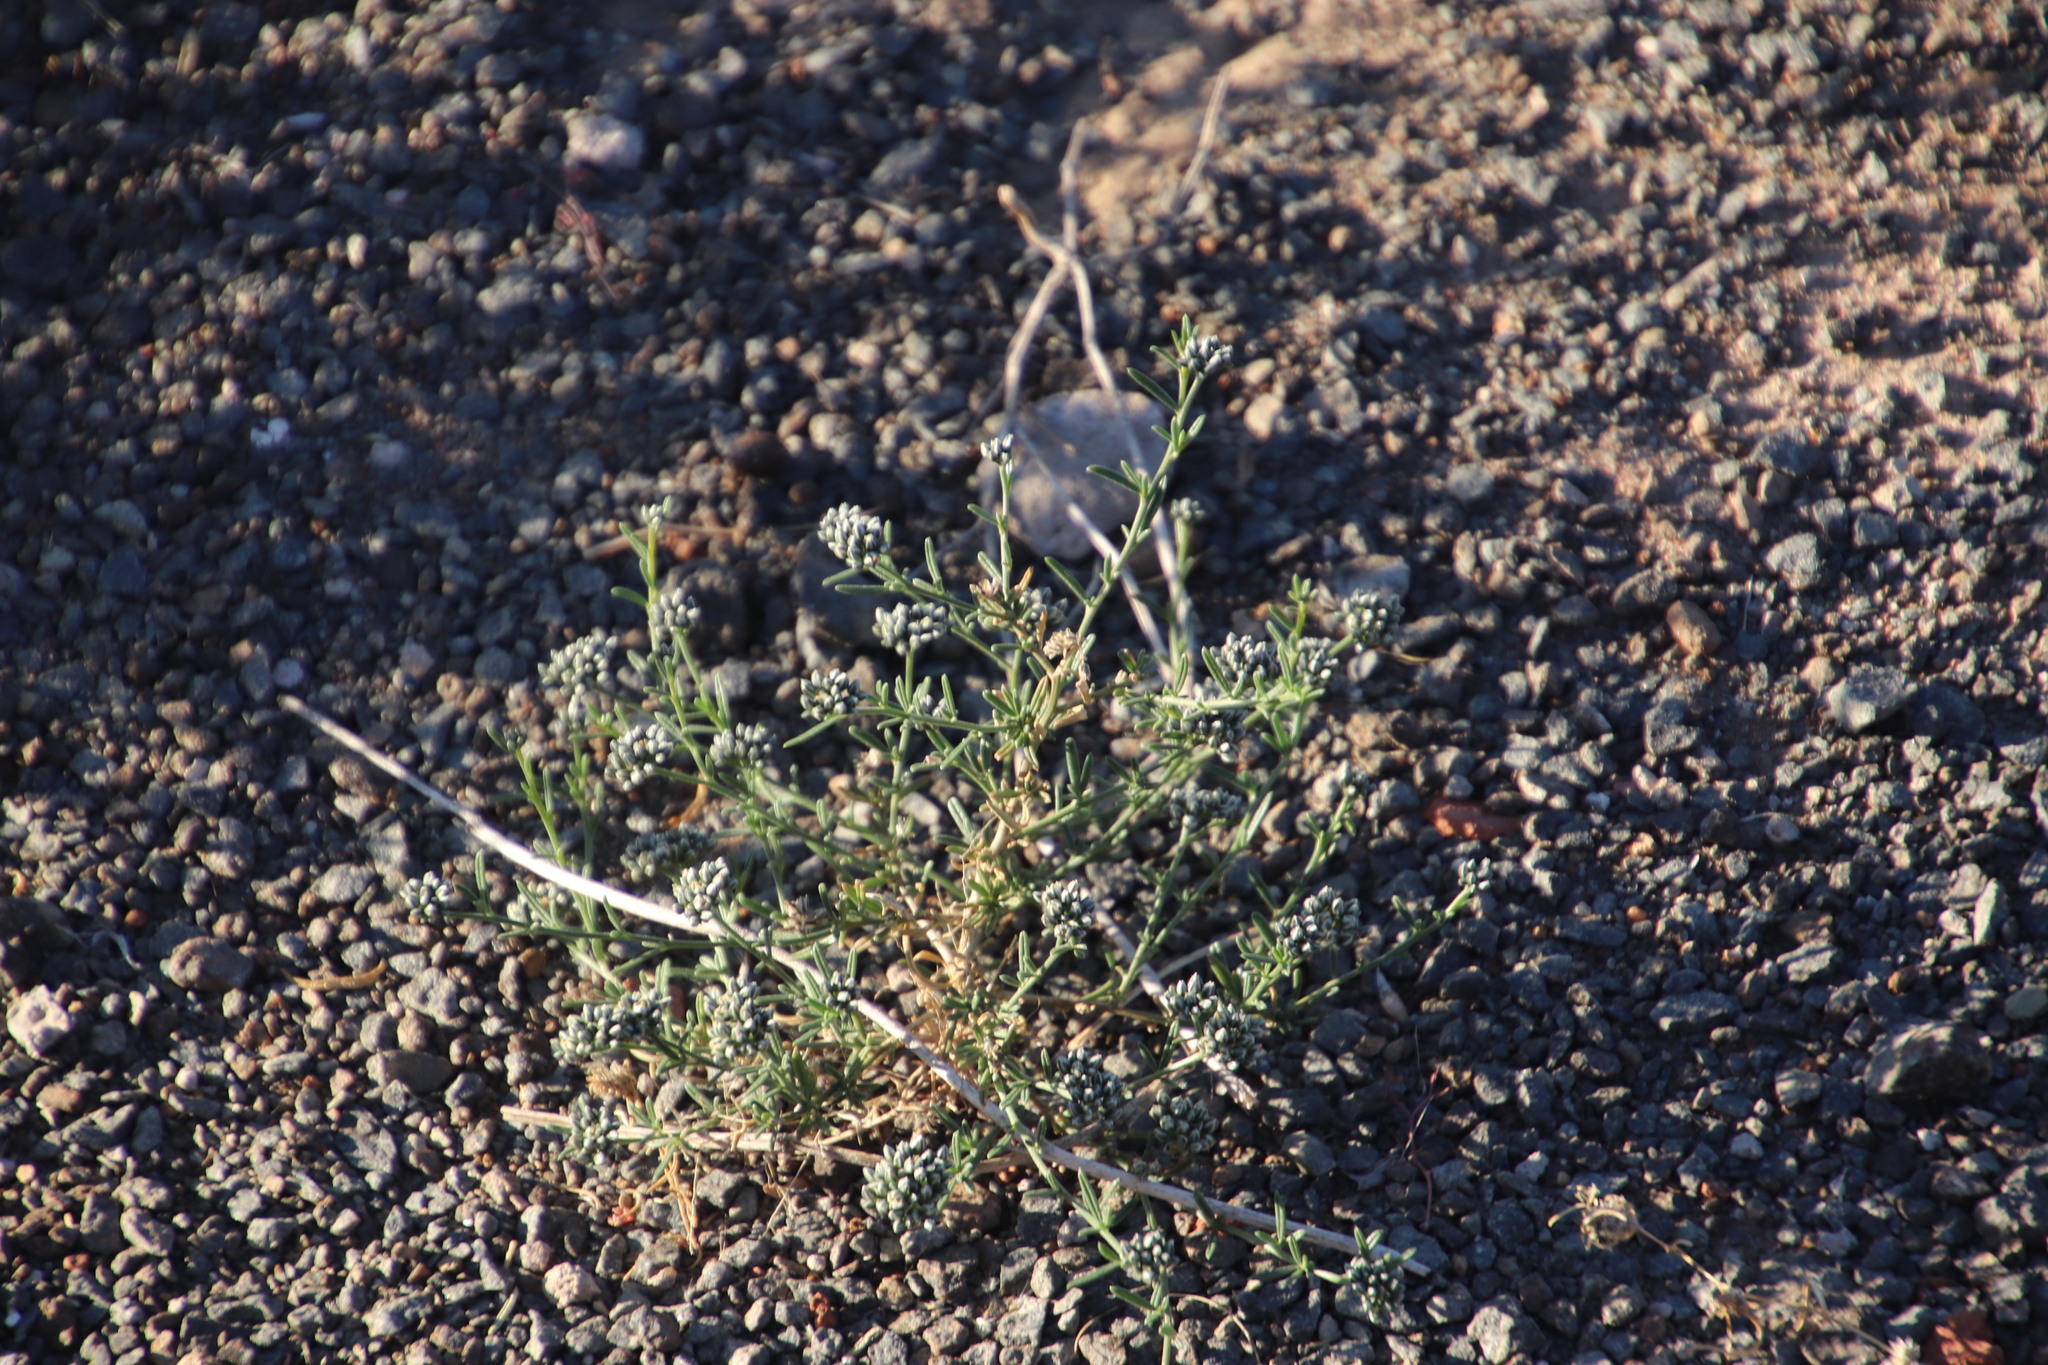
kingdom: Plantae
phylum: Tracheophyta
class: Magnoliopsida
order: Caryophyllales
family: Limeaceae
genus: Limeum
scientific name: Limeum aethiopicum
